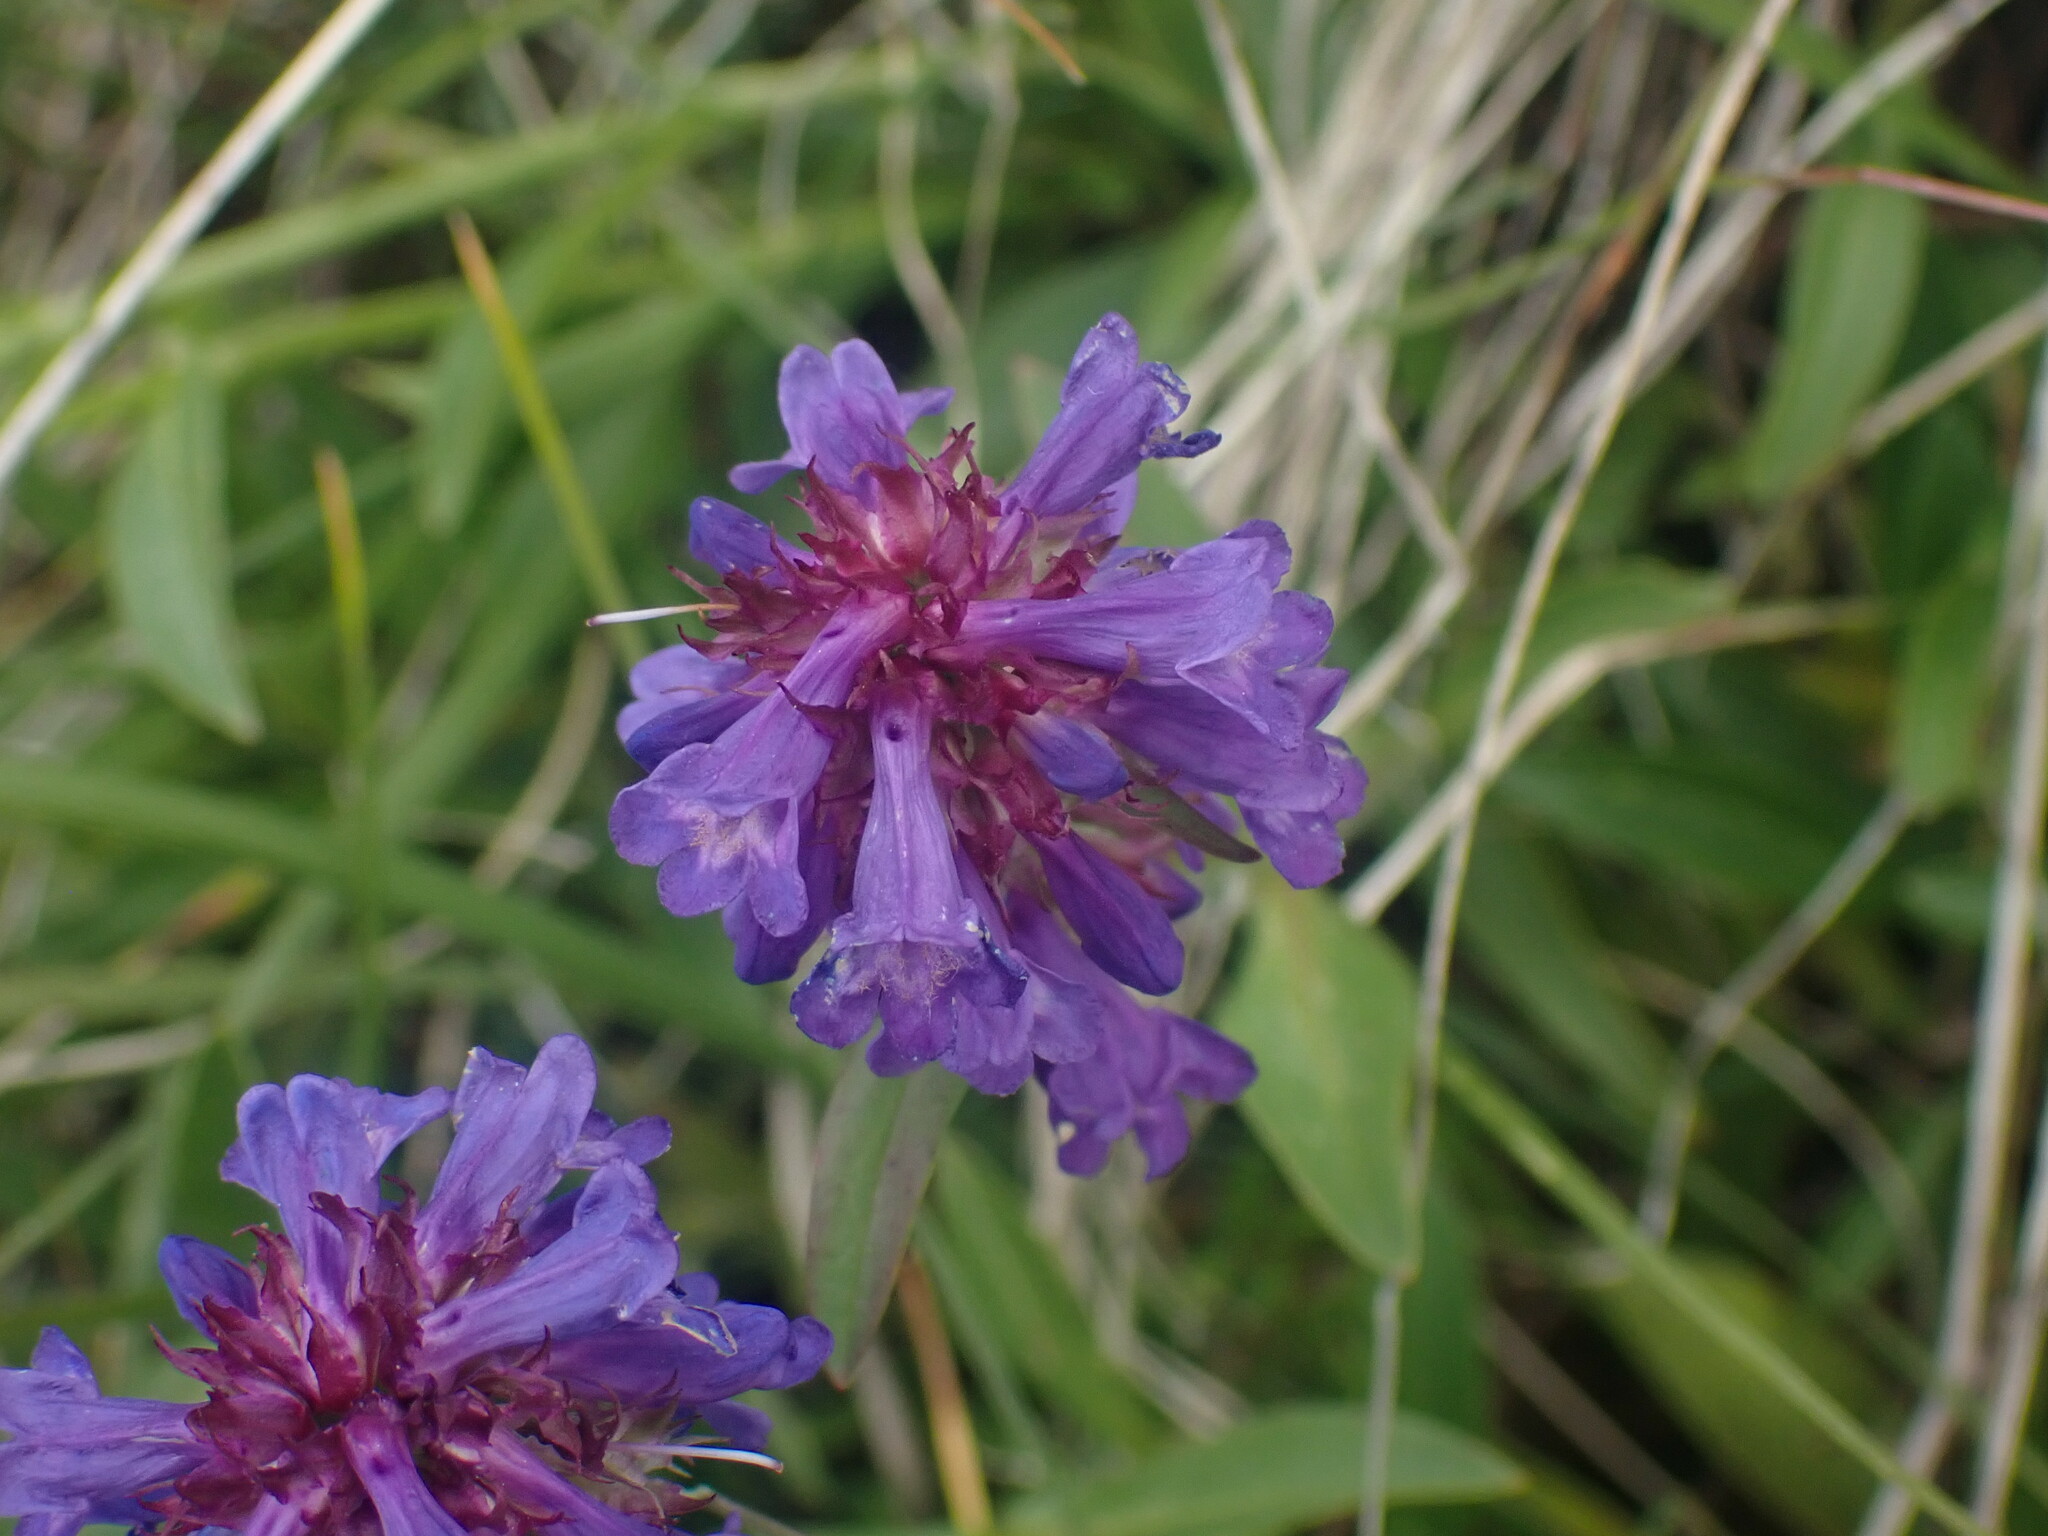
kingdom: Plantae
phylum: Tracheophyta
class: Magnoliopsida
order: Lamiales
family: Plantaginaceae
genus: Penstemon
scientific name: Penstemon procerus
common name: Small-flower penstemon
